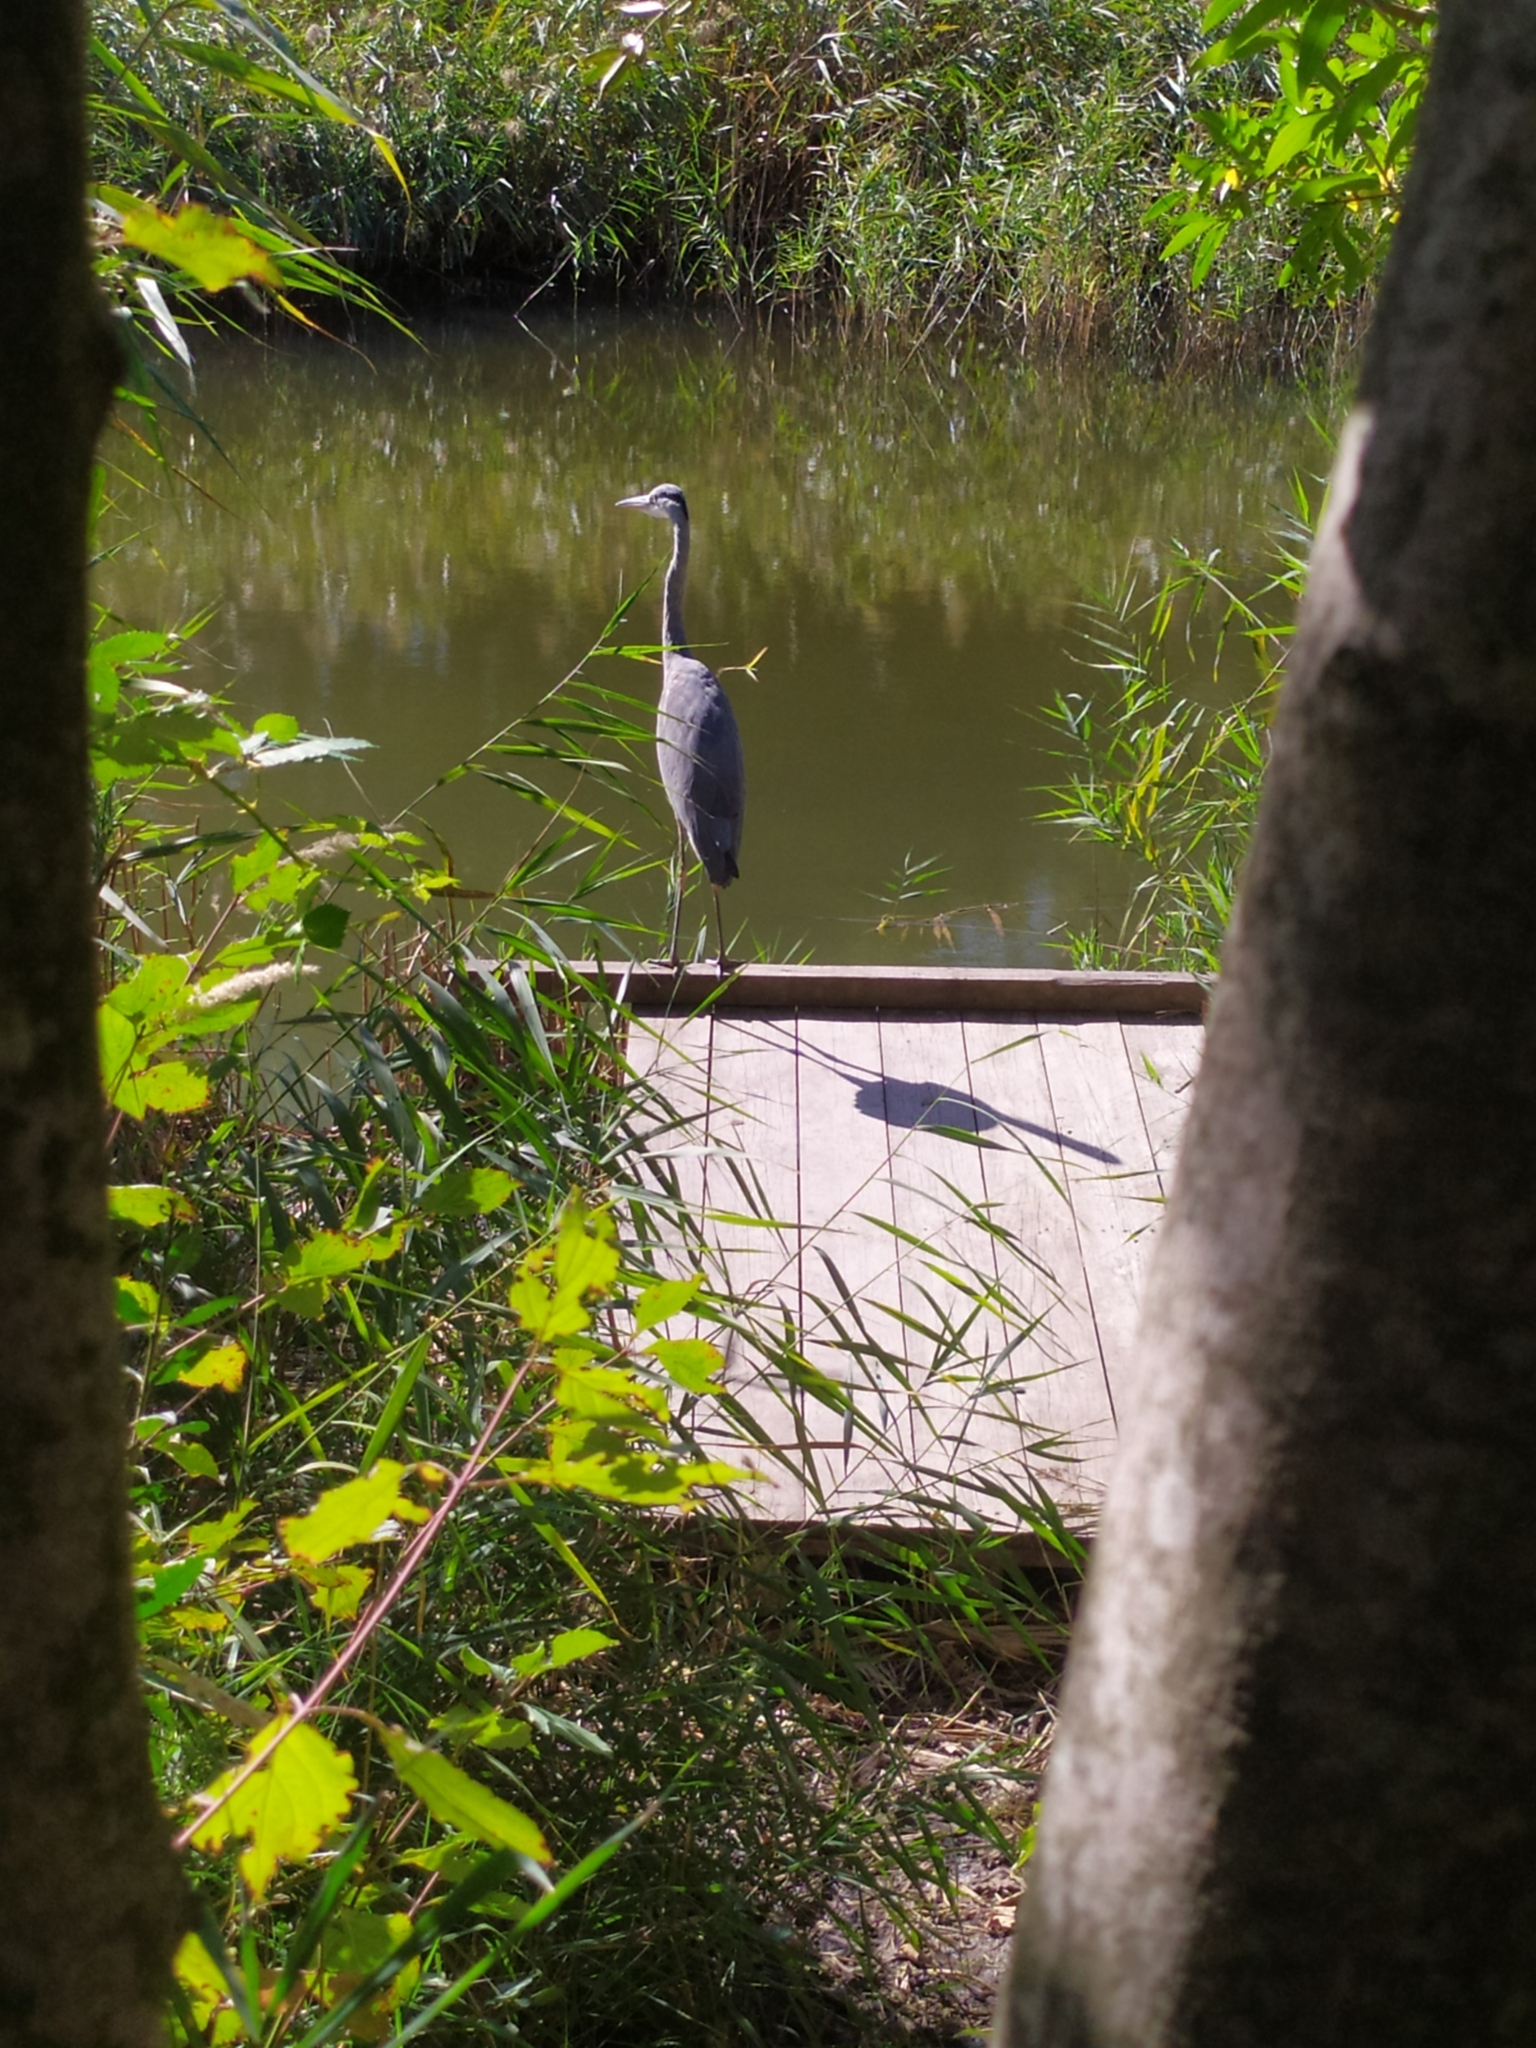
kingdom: Animalia
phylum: Chordata
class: Aves
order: Pelecaniformes
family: Ardeidae
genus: Ardea
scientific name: Ardea cinerea
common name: Grey heron
